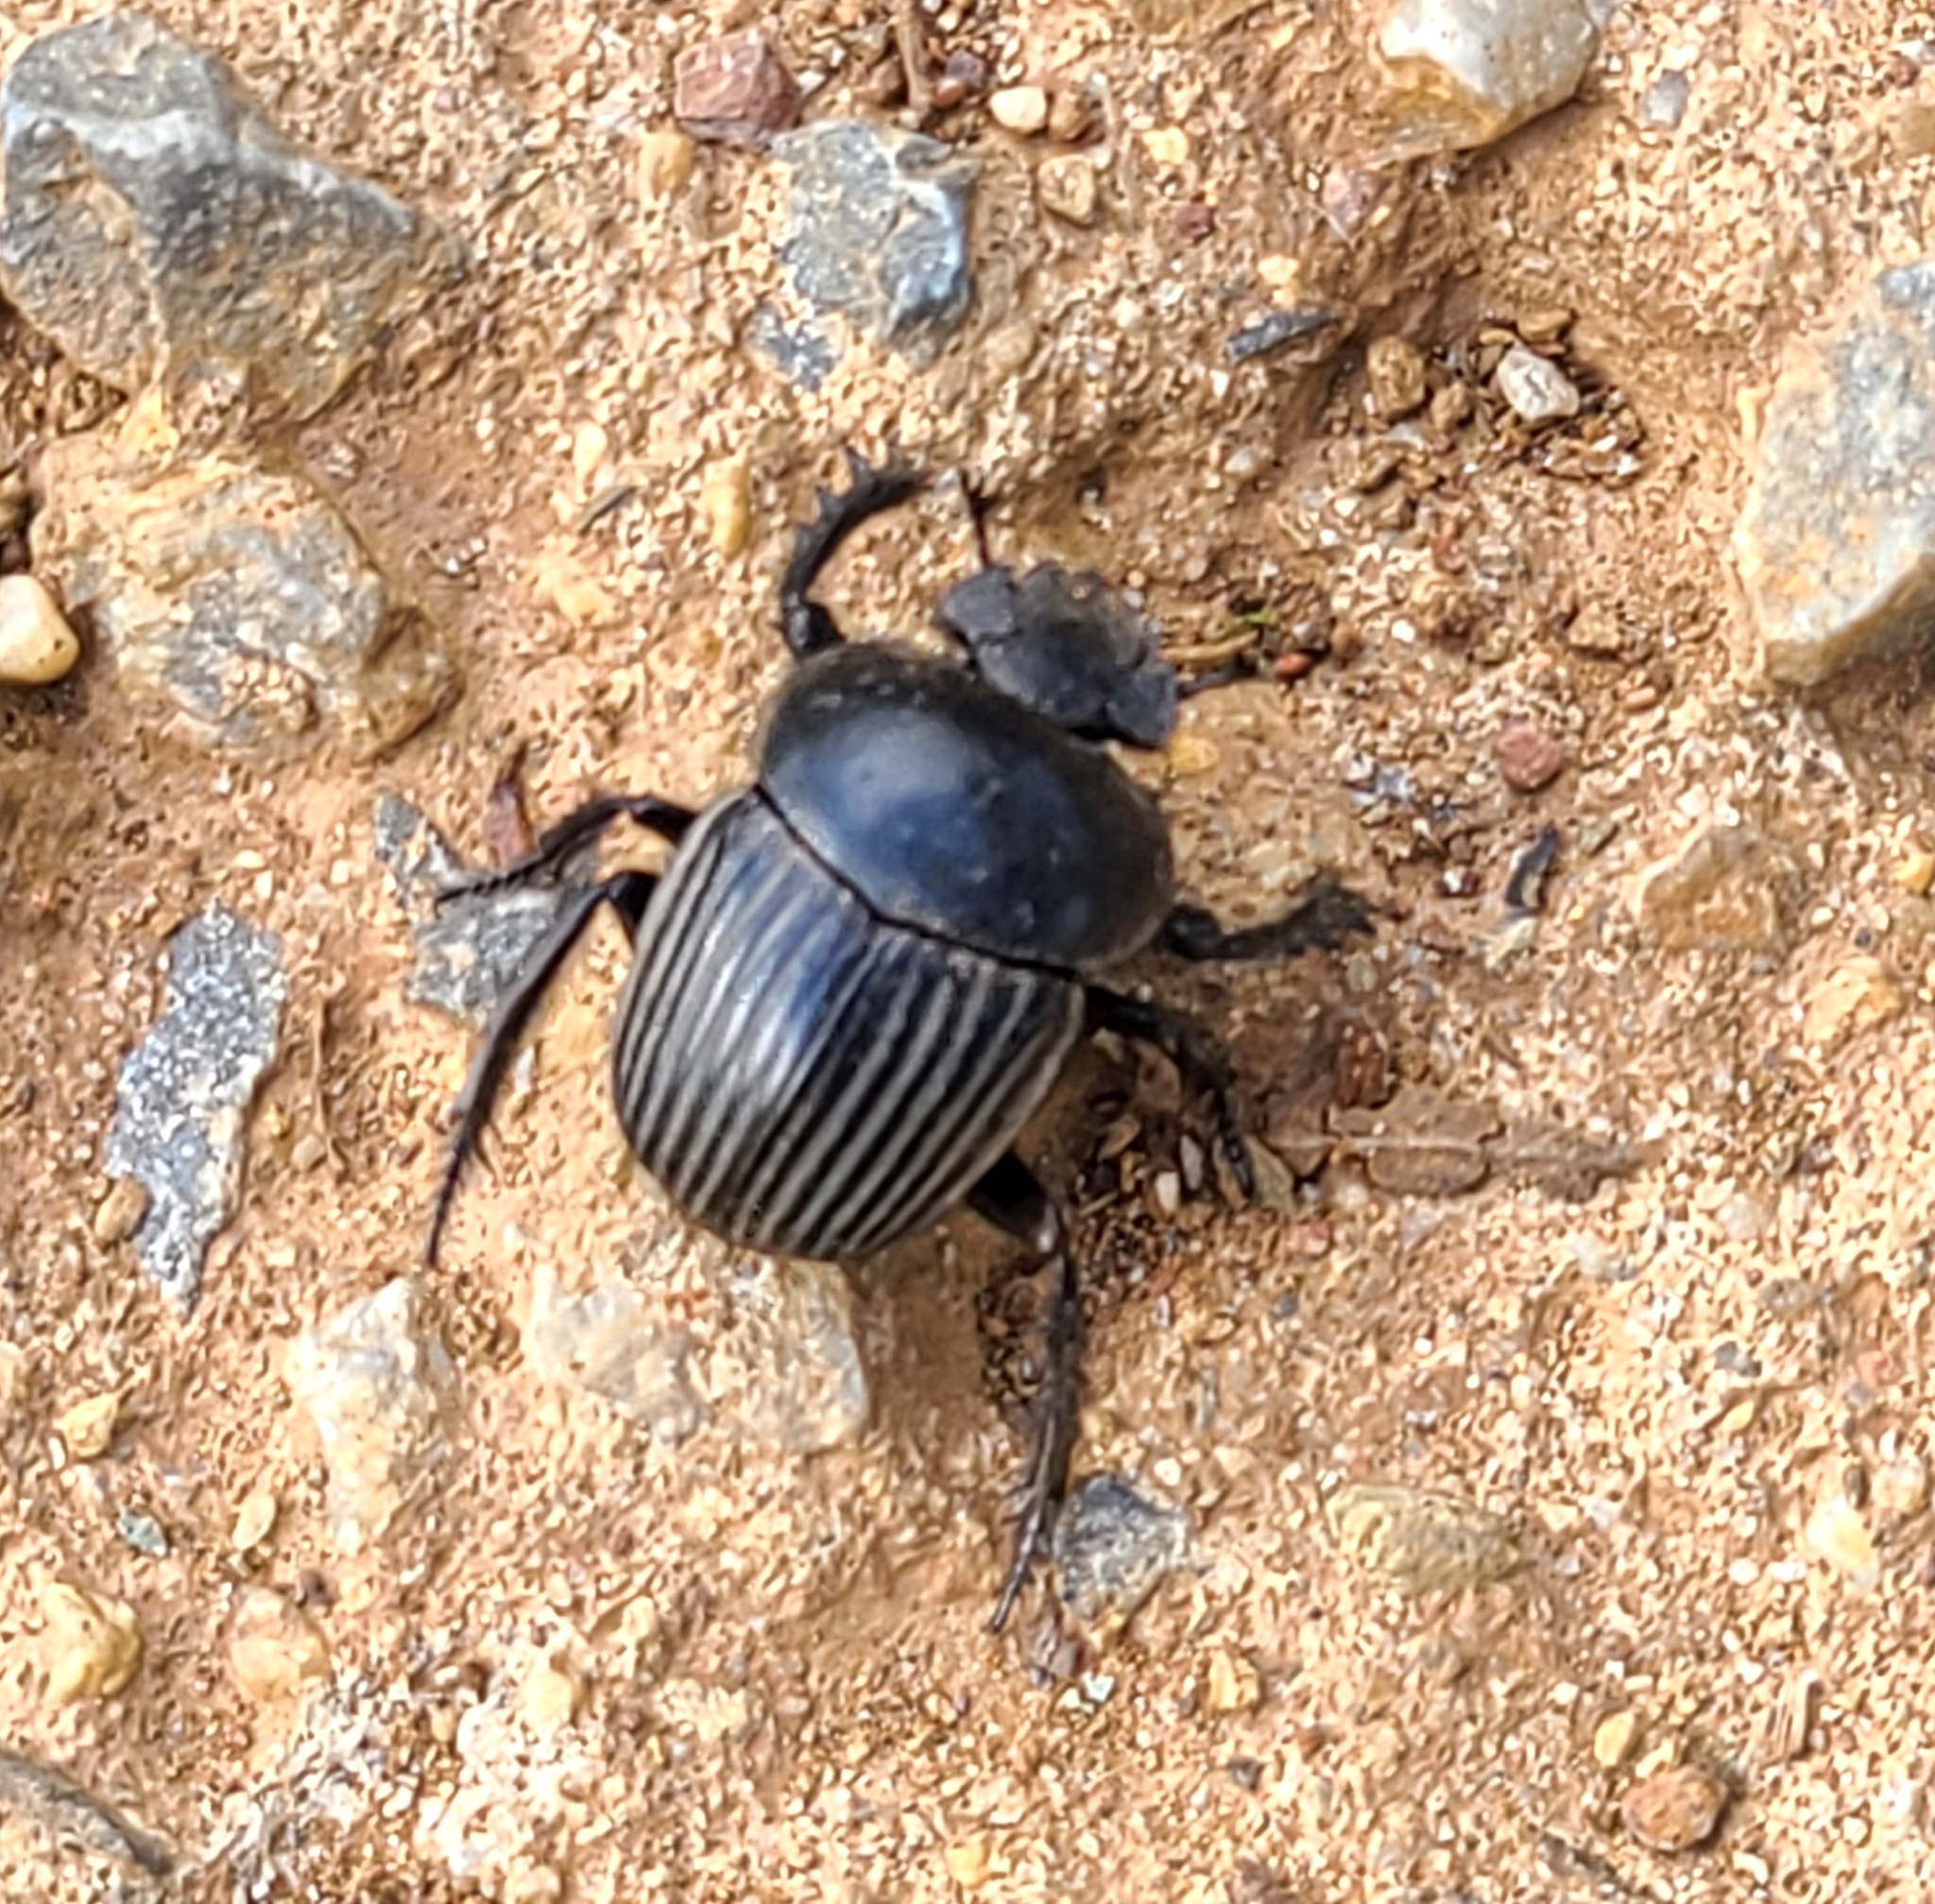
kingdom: Animalia
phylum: Arthropoda
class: Insecta
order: Coleoptera
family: Scarabaeidae
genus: Ateuchetus
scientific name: Ateuchetus laticollis
